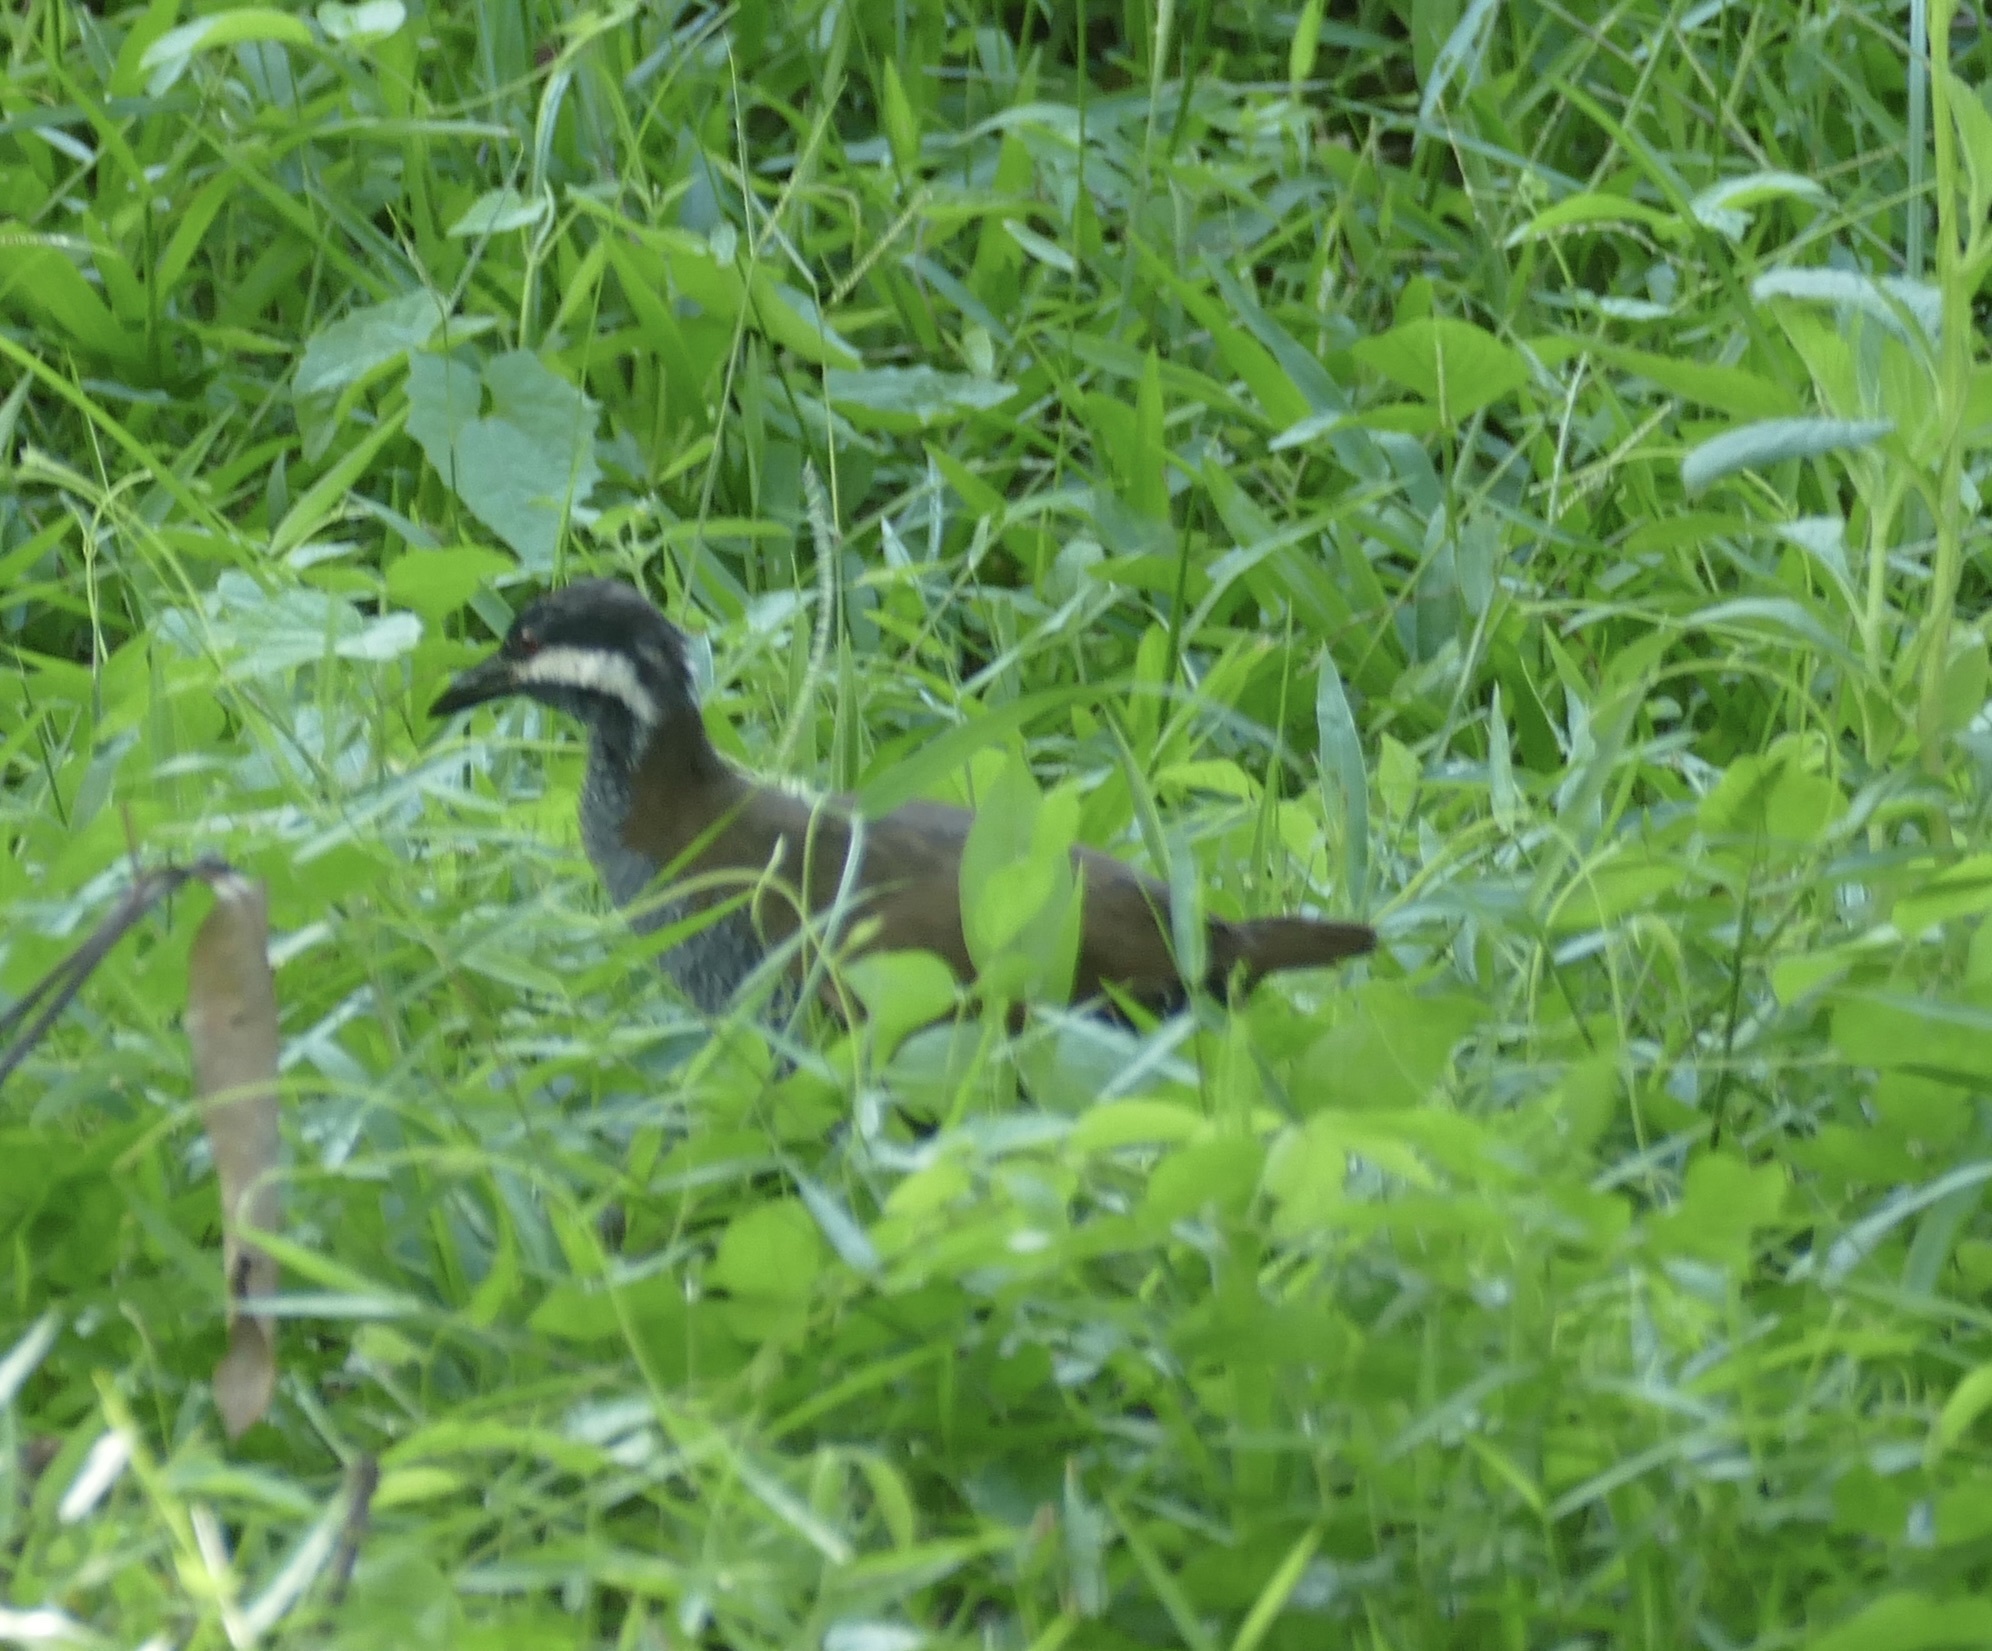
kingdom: Animalia
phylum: Chordata
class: Aves
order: Gruiformes
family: Rallidae
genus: Gallirallus
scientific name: Gallirallus torquatus
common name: Barred rail
